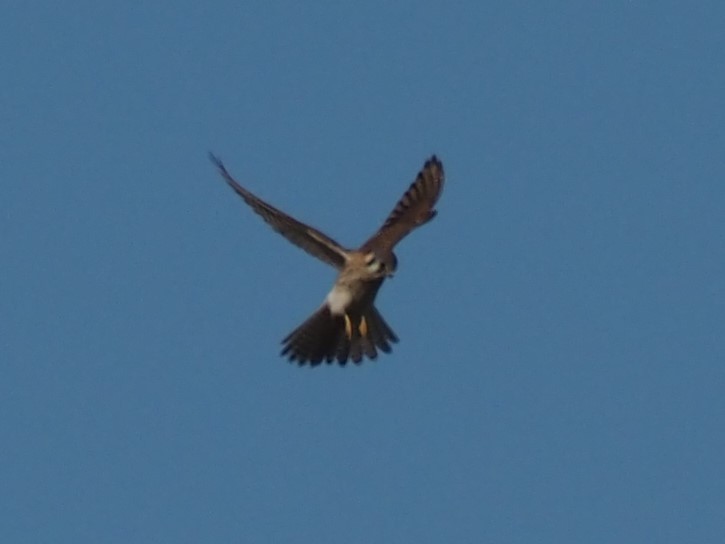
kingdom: Animalia
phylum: Chordata
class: Aves
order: Falconiformes
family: Falconidae
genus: Falco
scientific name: Falco sparverius
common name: American kestrel
